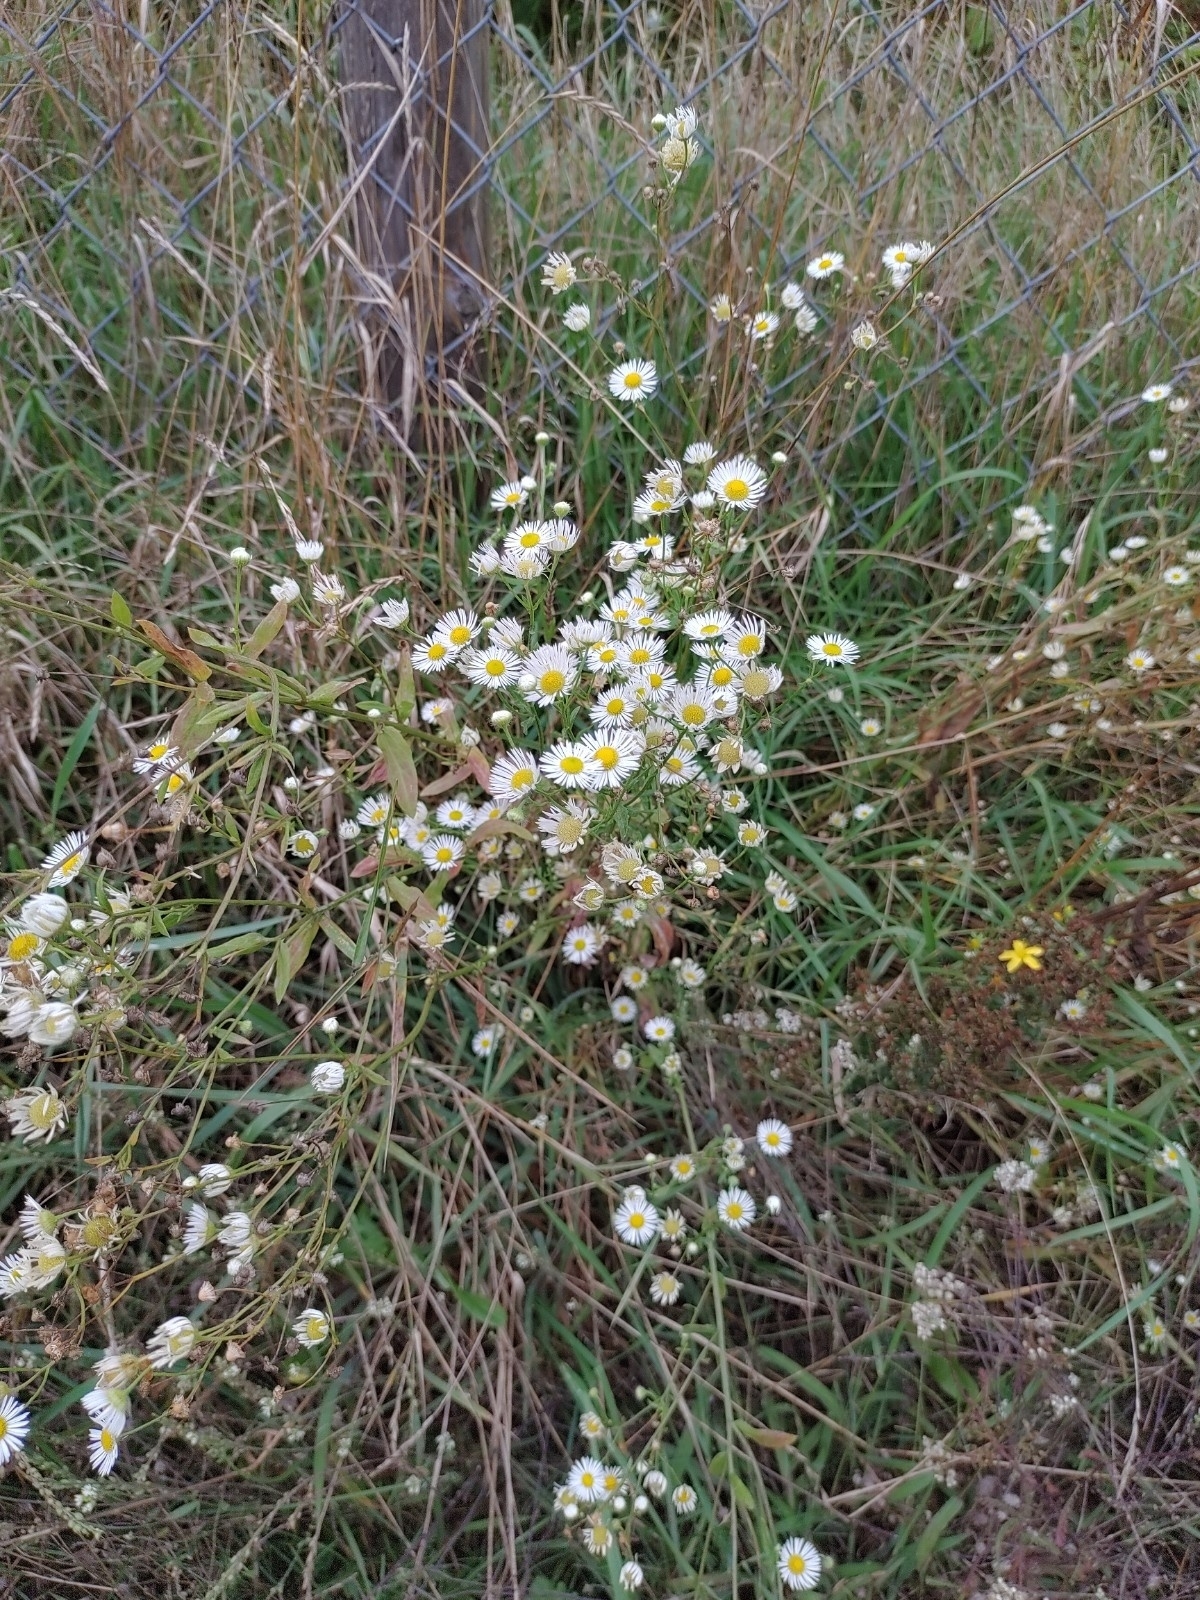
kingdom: Plantae
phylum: Tracheophyta
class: Magnoliopsida
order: Asterales
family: Asteraceae
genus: Erigeron
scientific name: Erigeron annuus
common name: Tall fleabane
